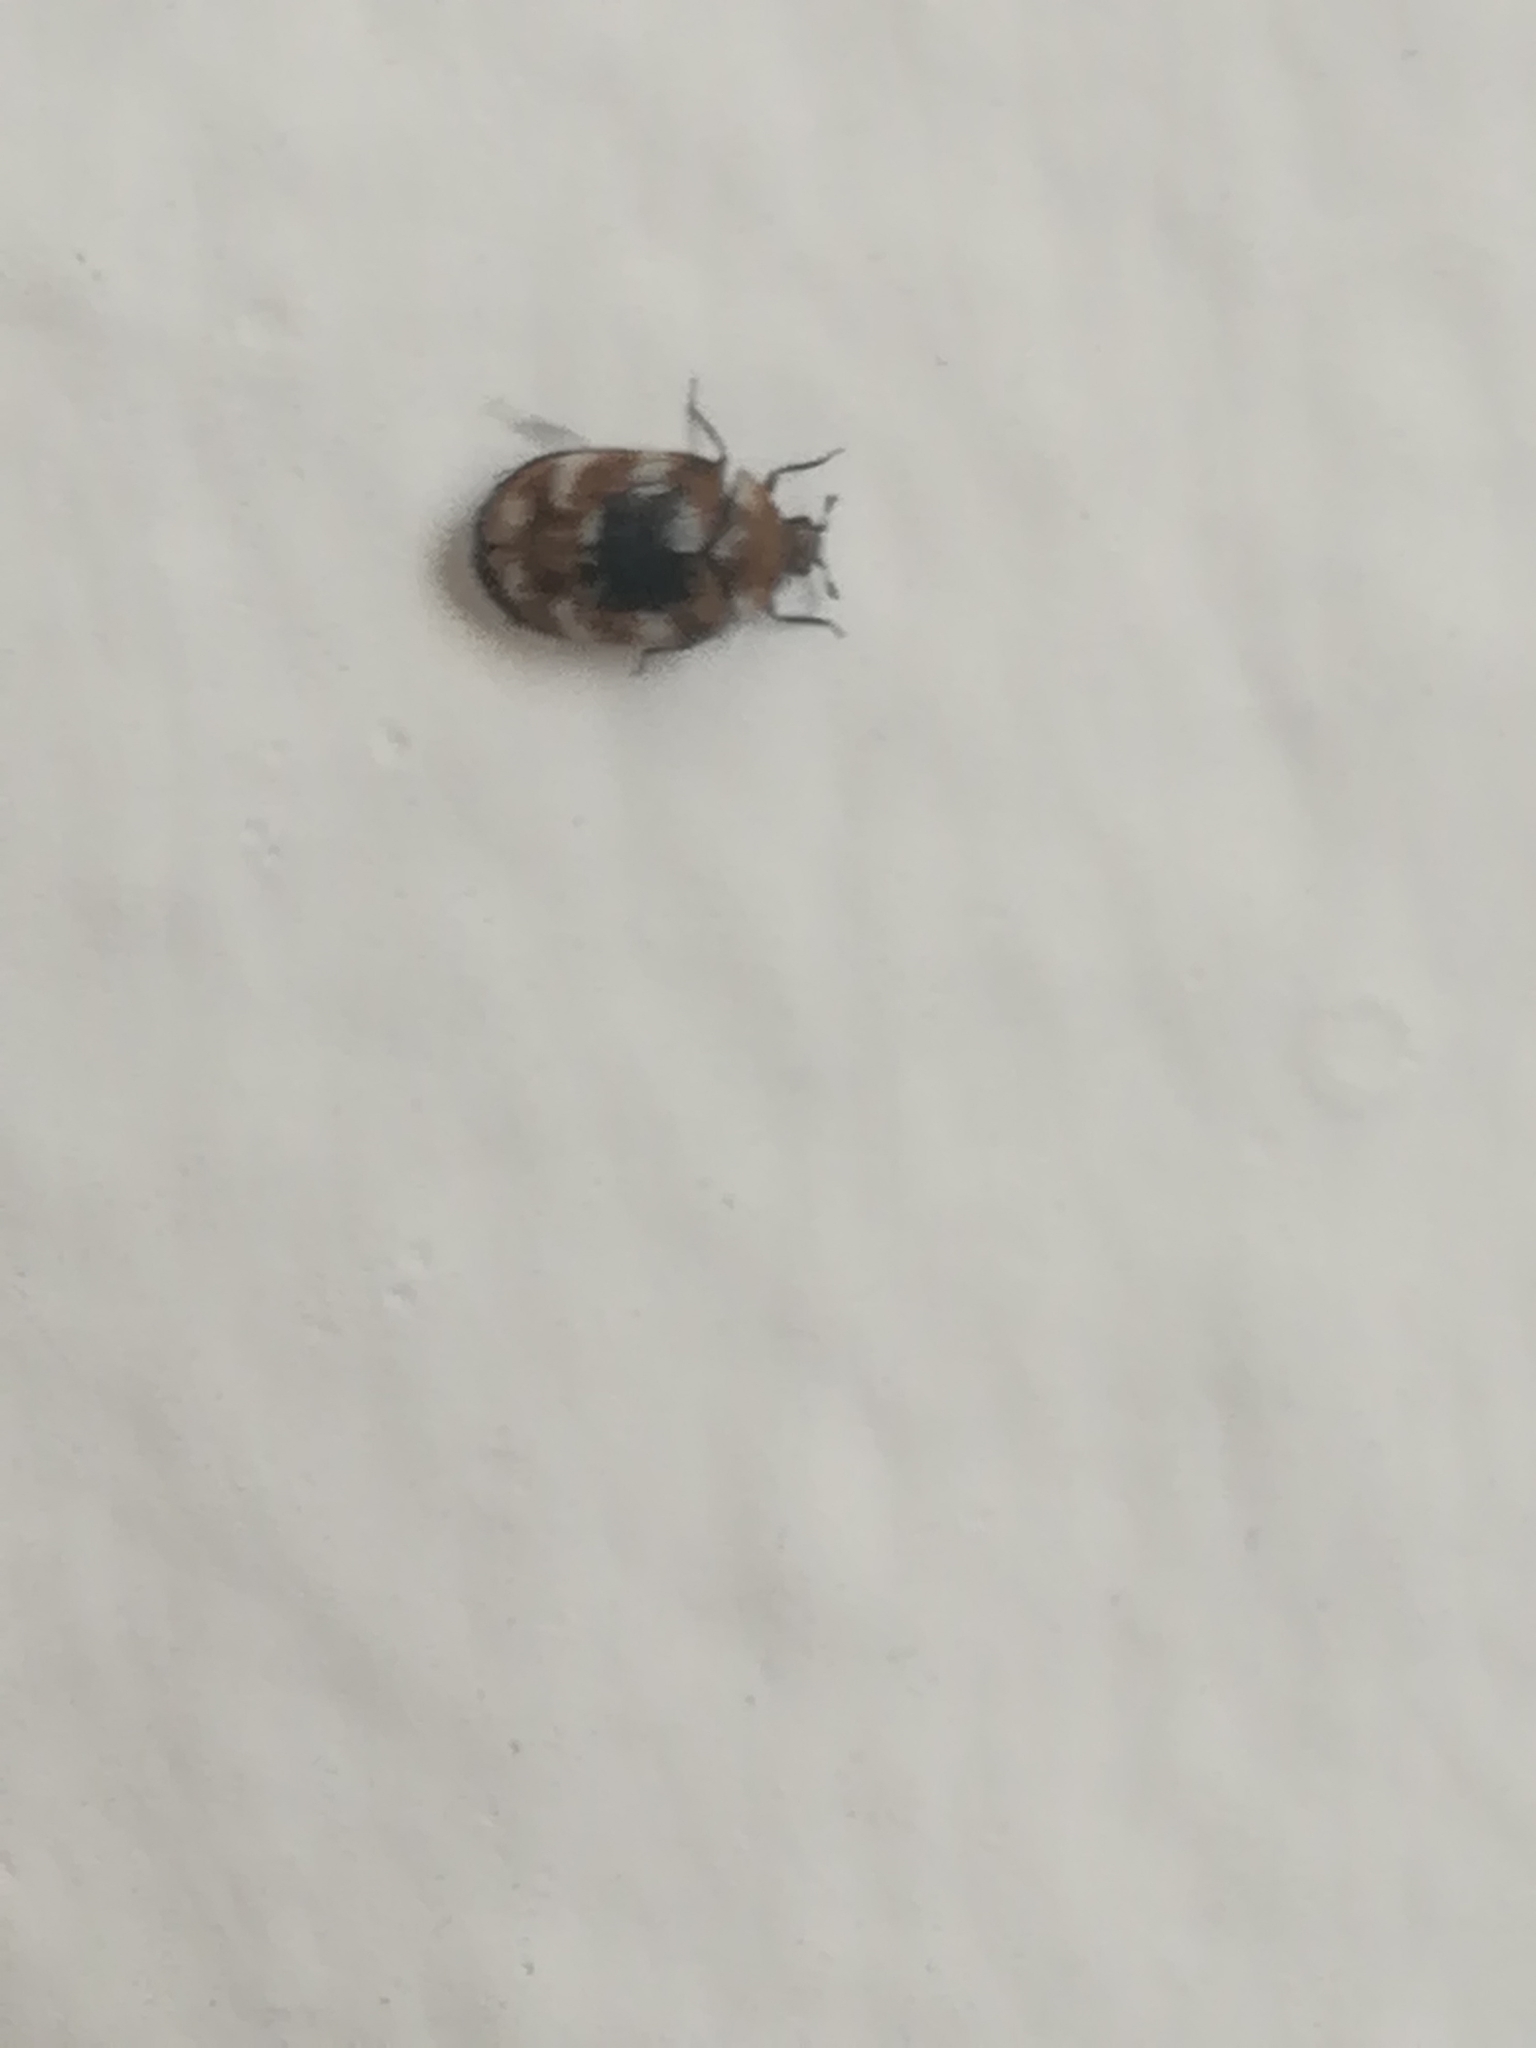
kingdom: Animalia
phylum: Arthropoda
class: Insecta
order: Coleoptera
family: Dermestidae
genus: Anthrenus
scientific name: Anthrenus verbasci
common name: Varied carpet beetle
